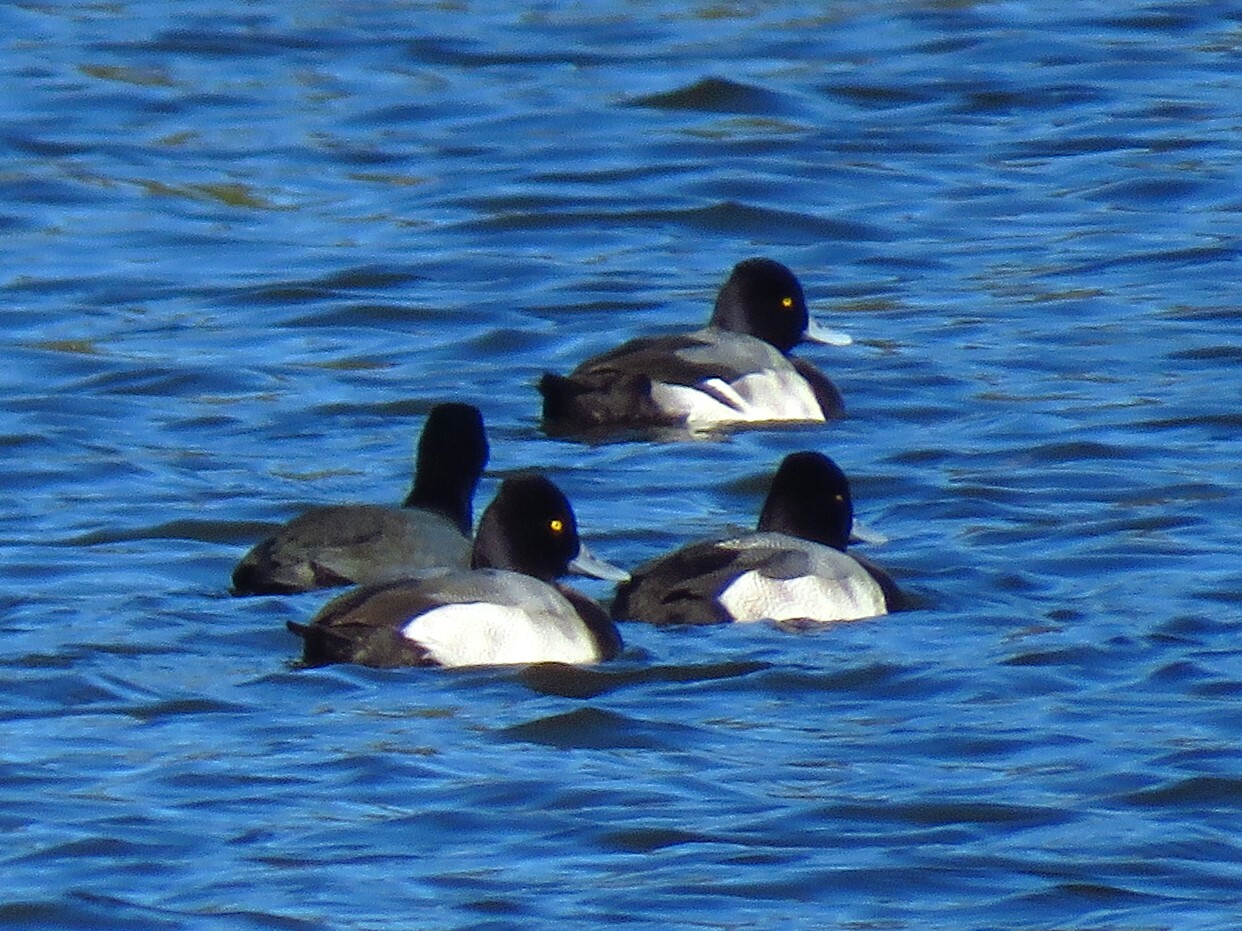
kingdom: Animalia
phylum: Chordata
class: Aves
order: Anseriformes
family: Anatidae
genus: Aythya
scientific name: Aythya affinis
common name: Lesser scaup
